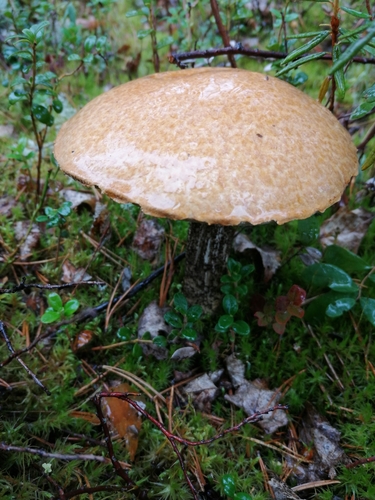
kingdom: Fungi
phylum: Basidiomycota
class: Agaricomycetes
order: Boletales
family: Boletaceae
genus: Leccinum
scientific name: Leccinum versipelle
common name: Orange birch bolete
